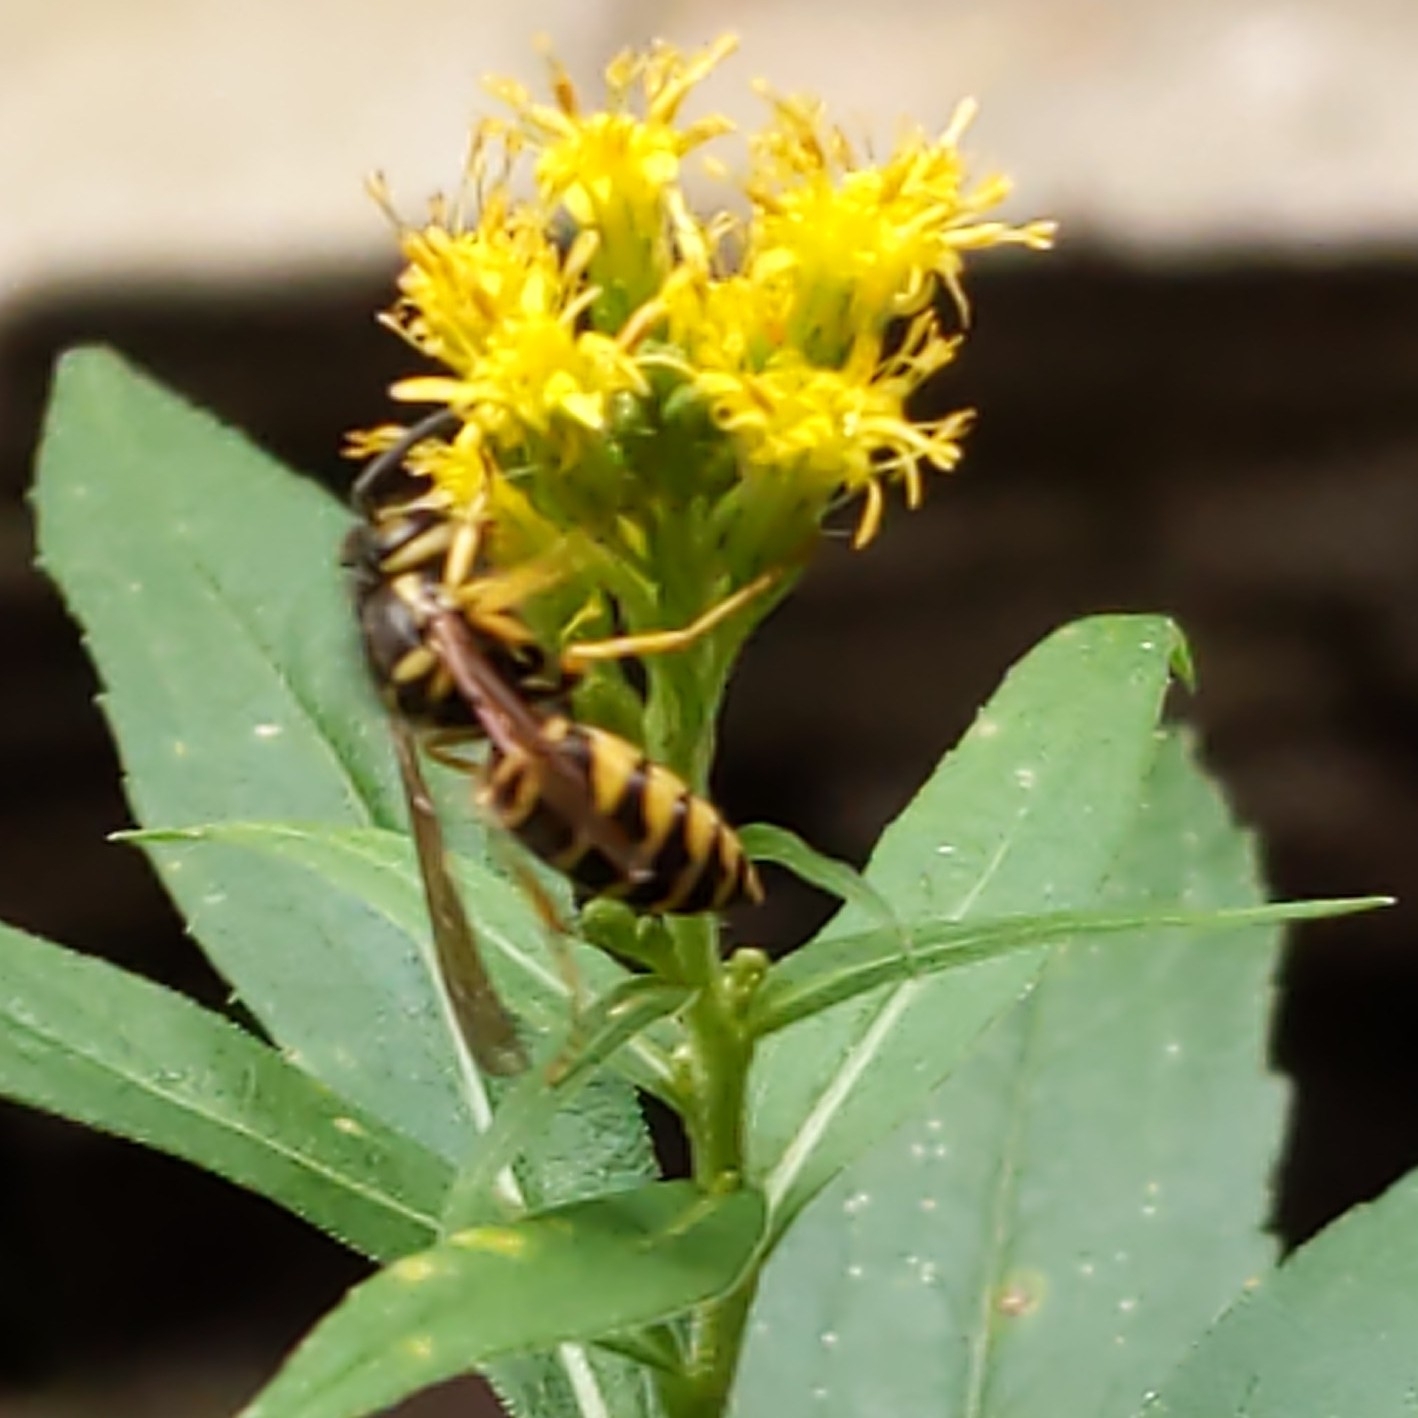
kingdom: Animalia
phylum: Arthropoda
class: Insecta
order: Hymenoptera
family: Vespidae
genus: Vespula
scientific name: Vespula maculifrons
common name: Eastern yellowjacket
